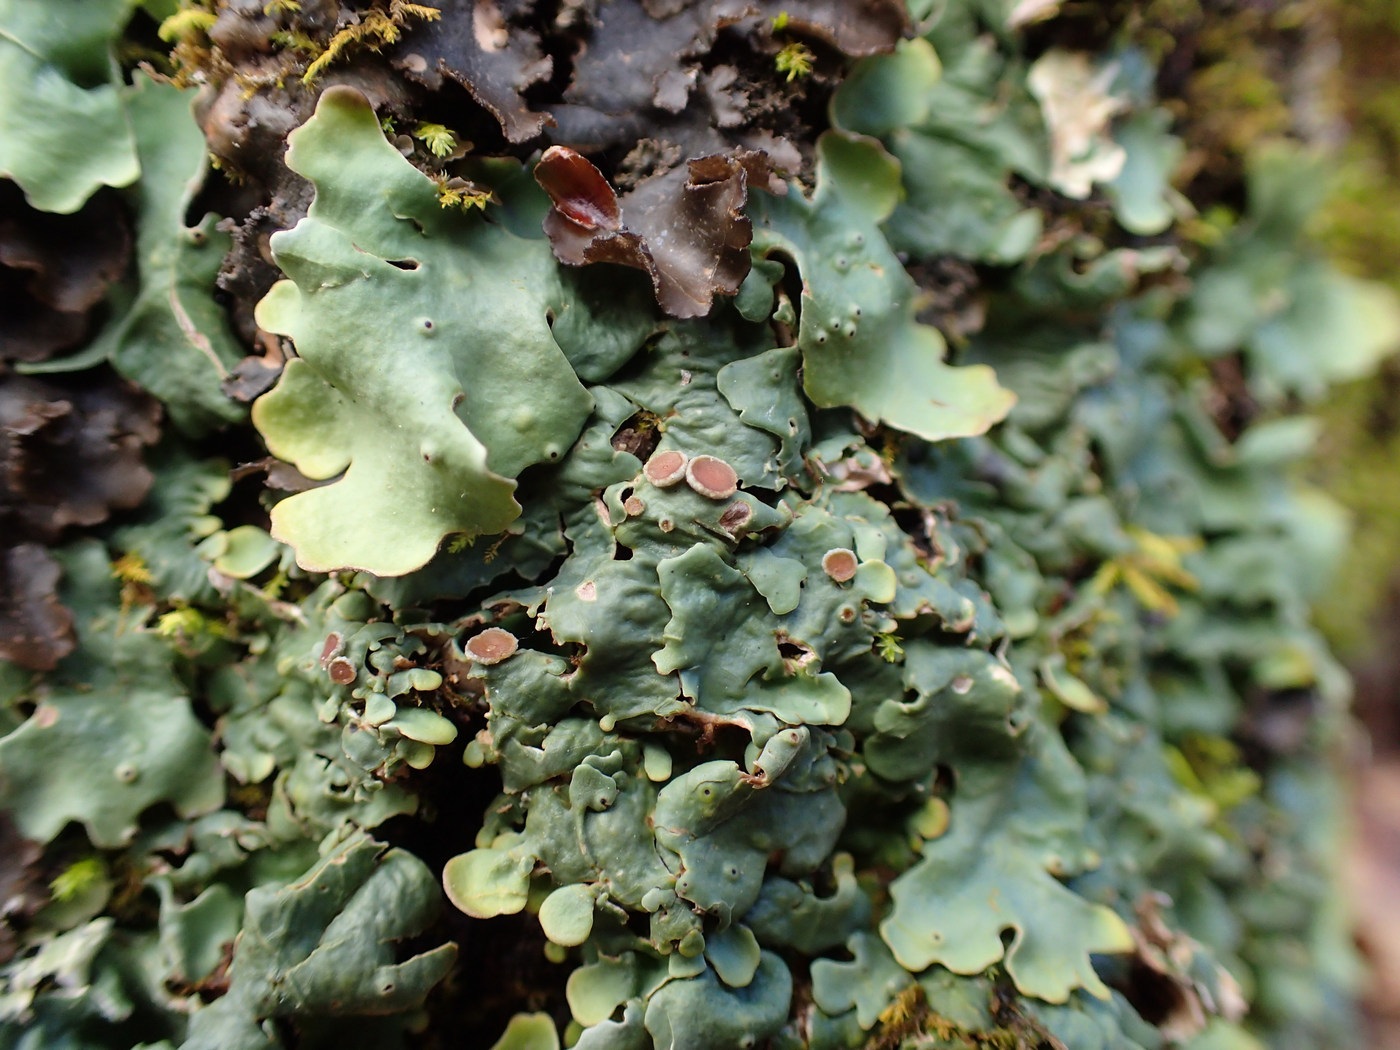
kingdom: Fungi
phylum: Ascomycota
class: Lecanoromycetes
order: Peltigerales
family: Lobariaceae
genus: Ricasolia
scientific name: Ricasolia quercizans
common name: Smooth lungwort
